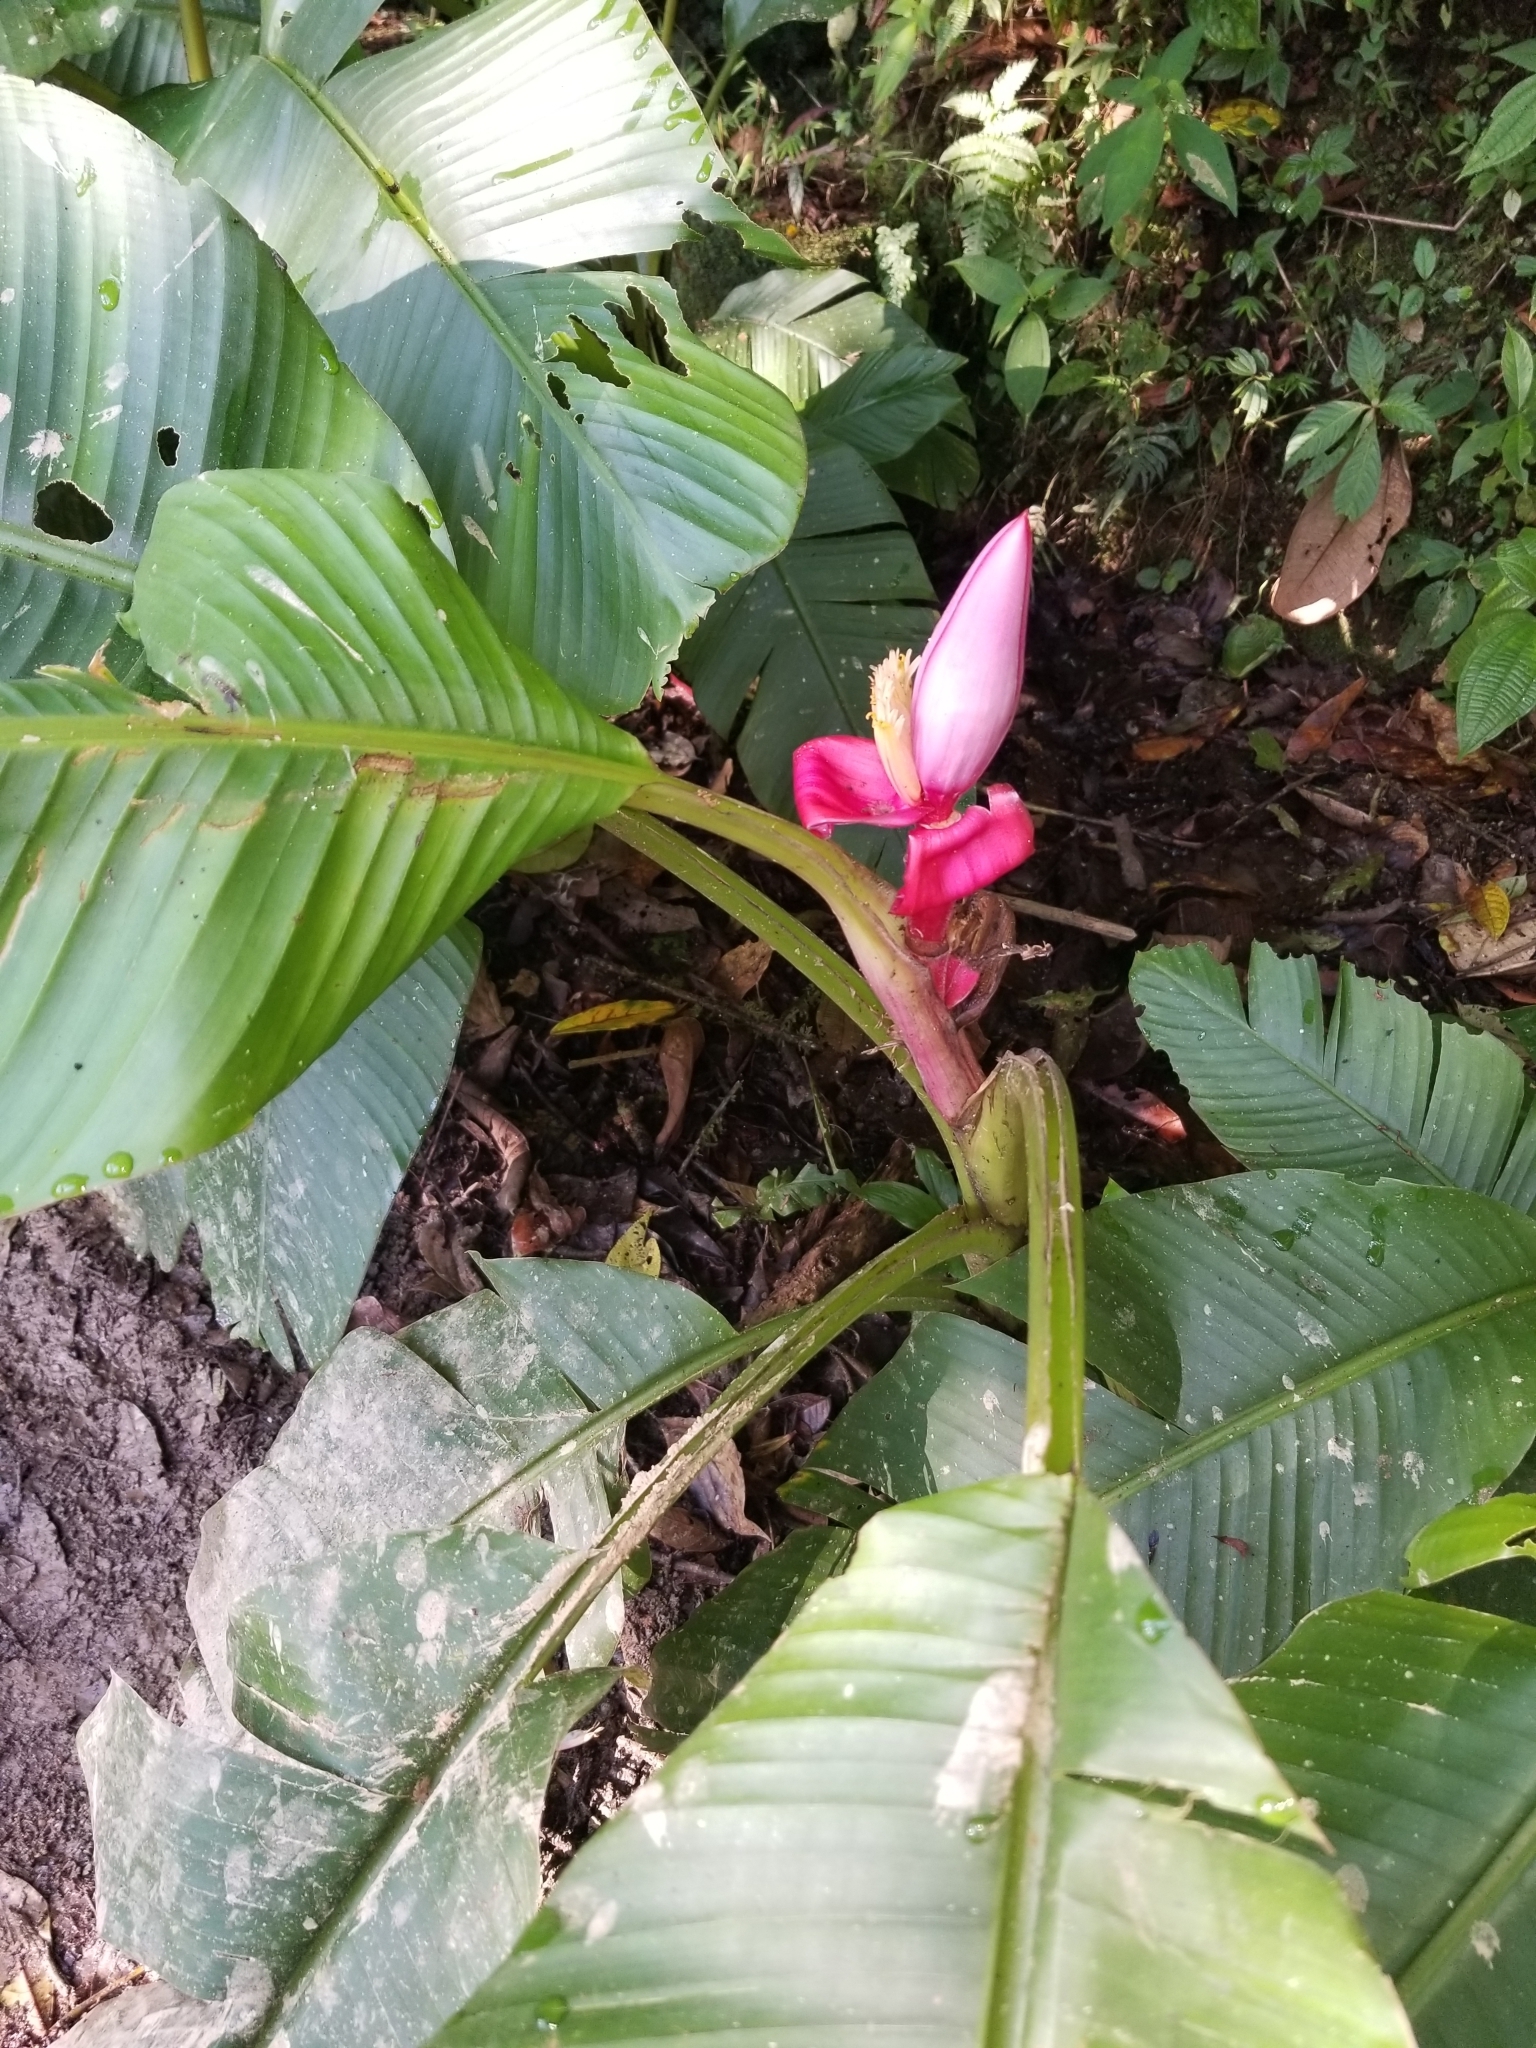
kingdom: Plantae
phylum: Tracheophyta
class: Liliopsida
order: Zingiberales
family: Musaceae
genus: Musa
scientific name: Musa velutina
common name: Pink velvet banana
